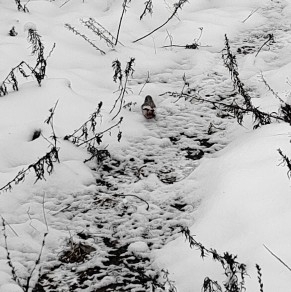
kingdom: Animalia
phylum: Chordata
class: Aves
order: Passeriformes
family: Fringillidae
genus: Carpodacus
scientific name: Carpodacus sibiricus
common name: Long-tailed rosefinch
